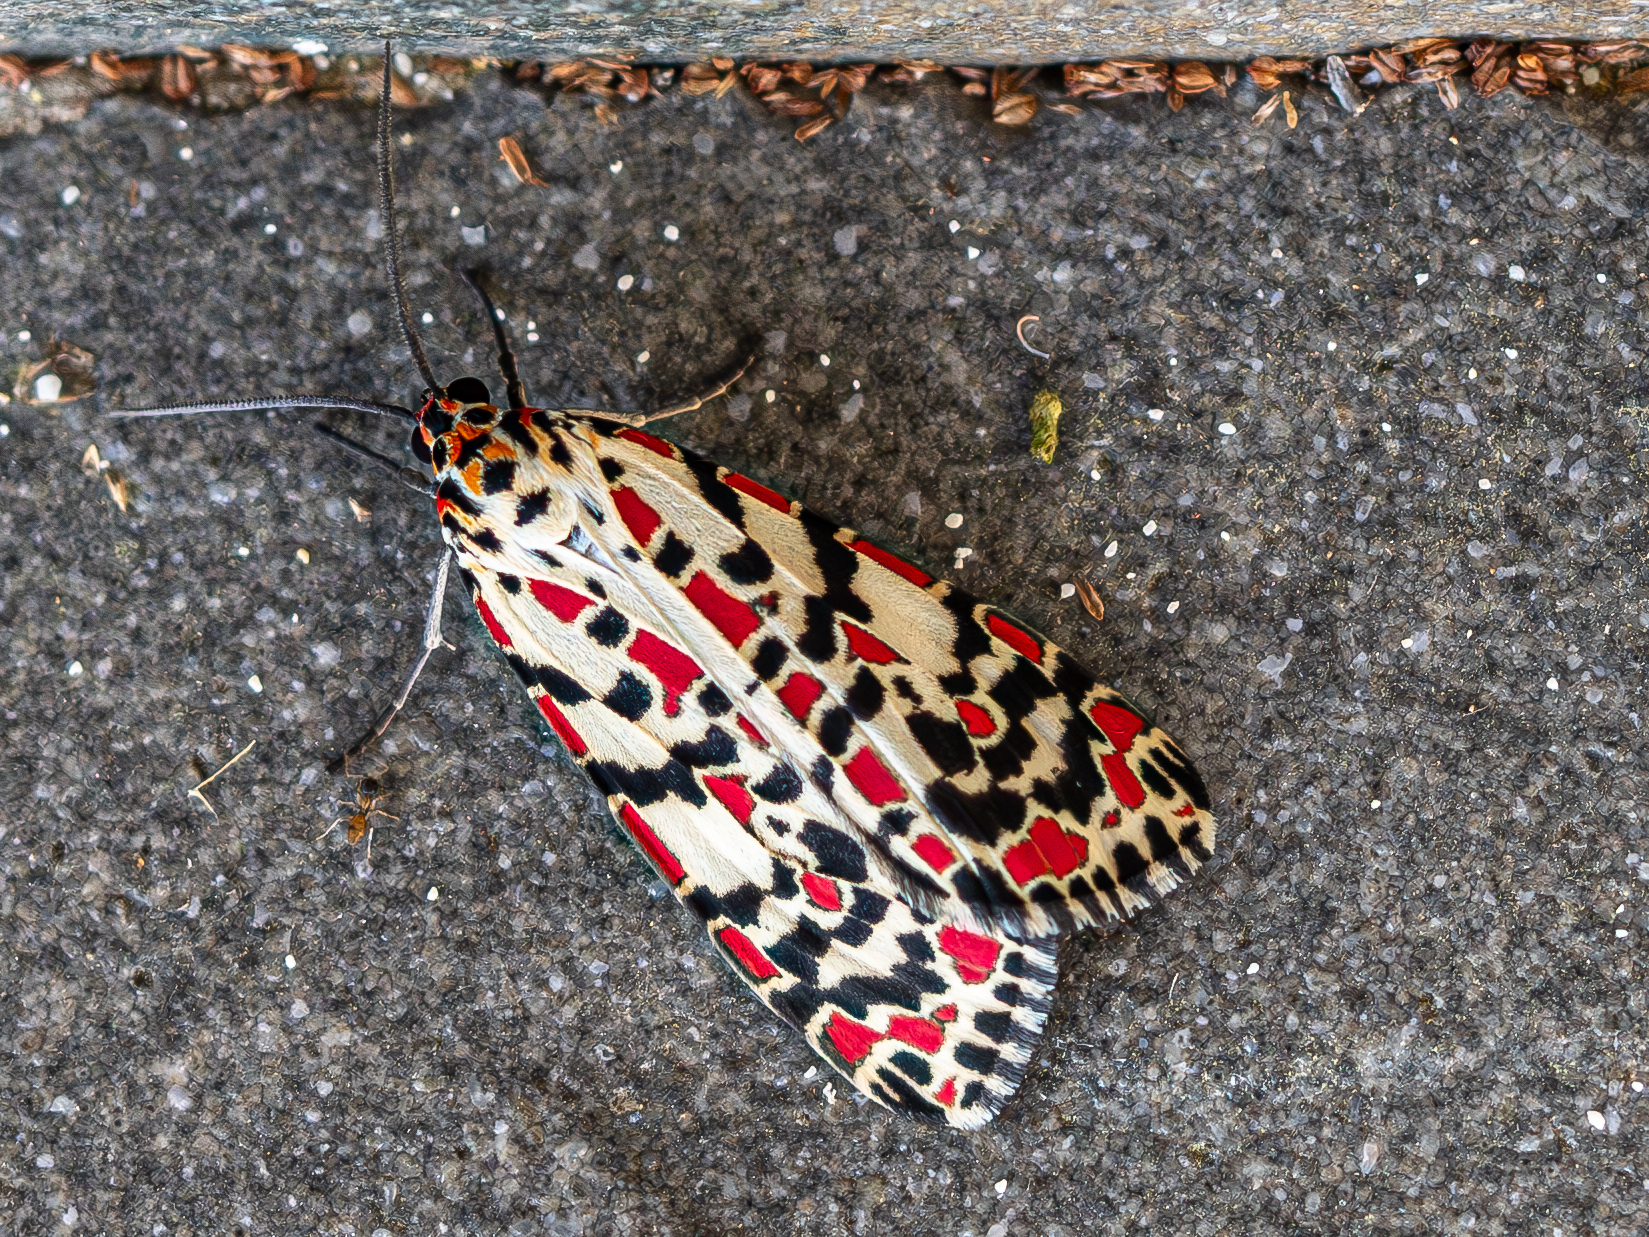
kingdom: Animalia
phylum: Arthropoda
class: Insecta
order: Lepidoptera
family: Erebidae
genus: Utetheisa
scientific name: Utetheisa salomonis
